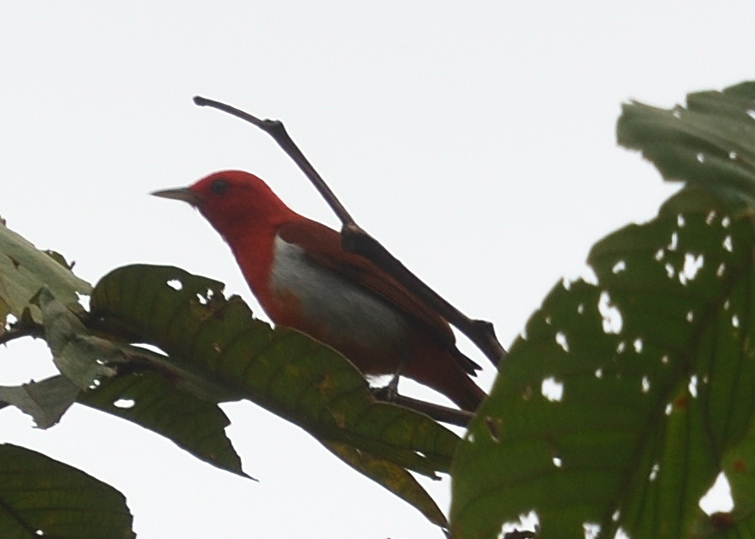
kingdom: Animalia
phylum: Chordata
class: Aves
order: Passeriformes
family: Thraupidae
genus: Chrysothlypis
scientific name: Chrysothlypis salmoni
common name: Scarlet-and-white tanager
